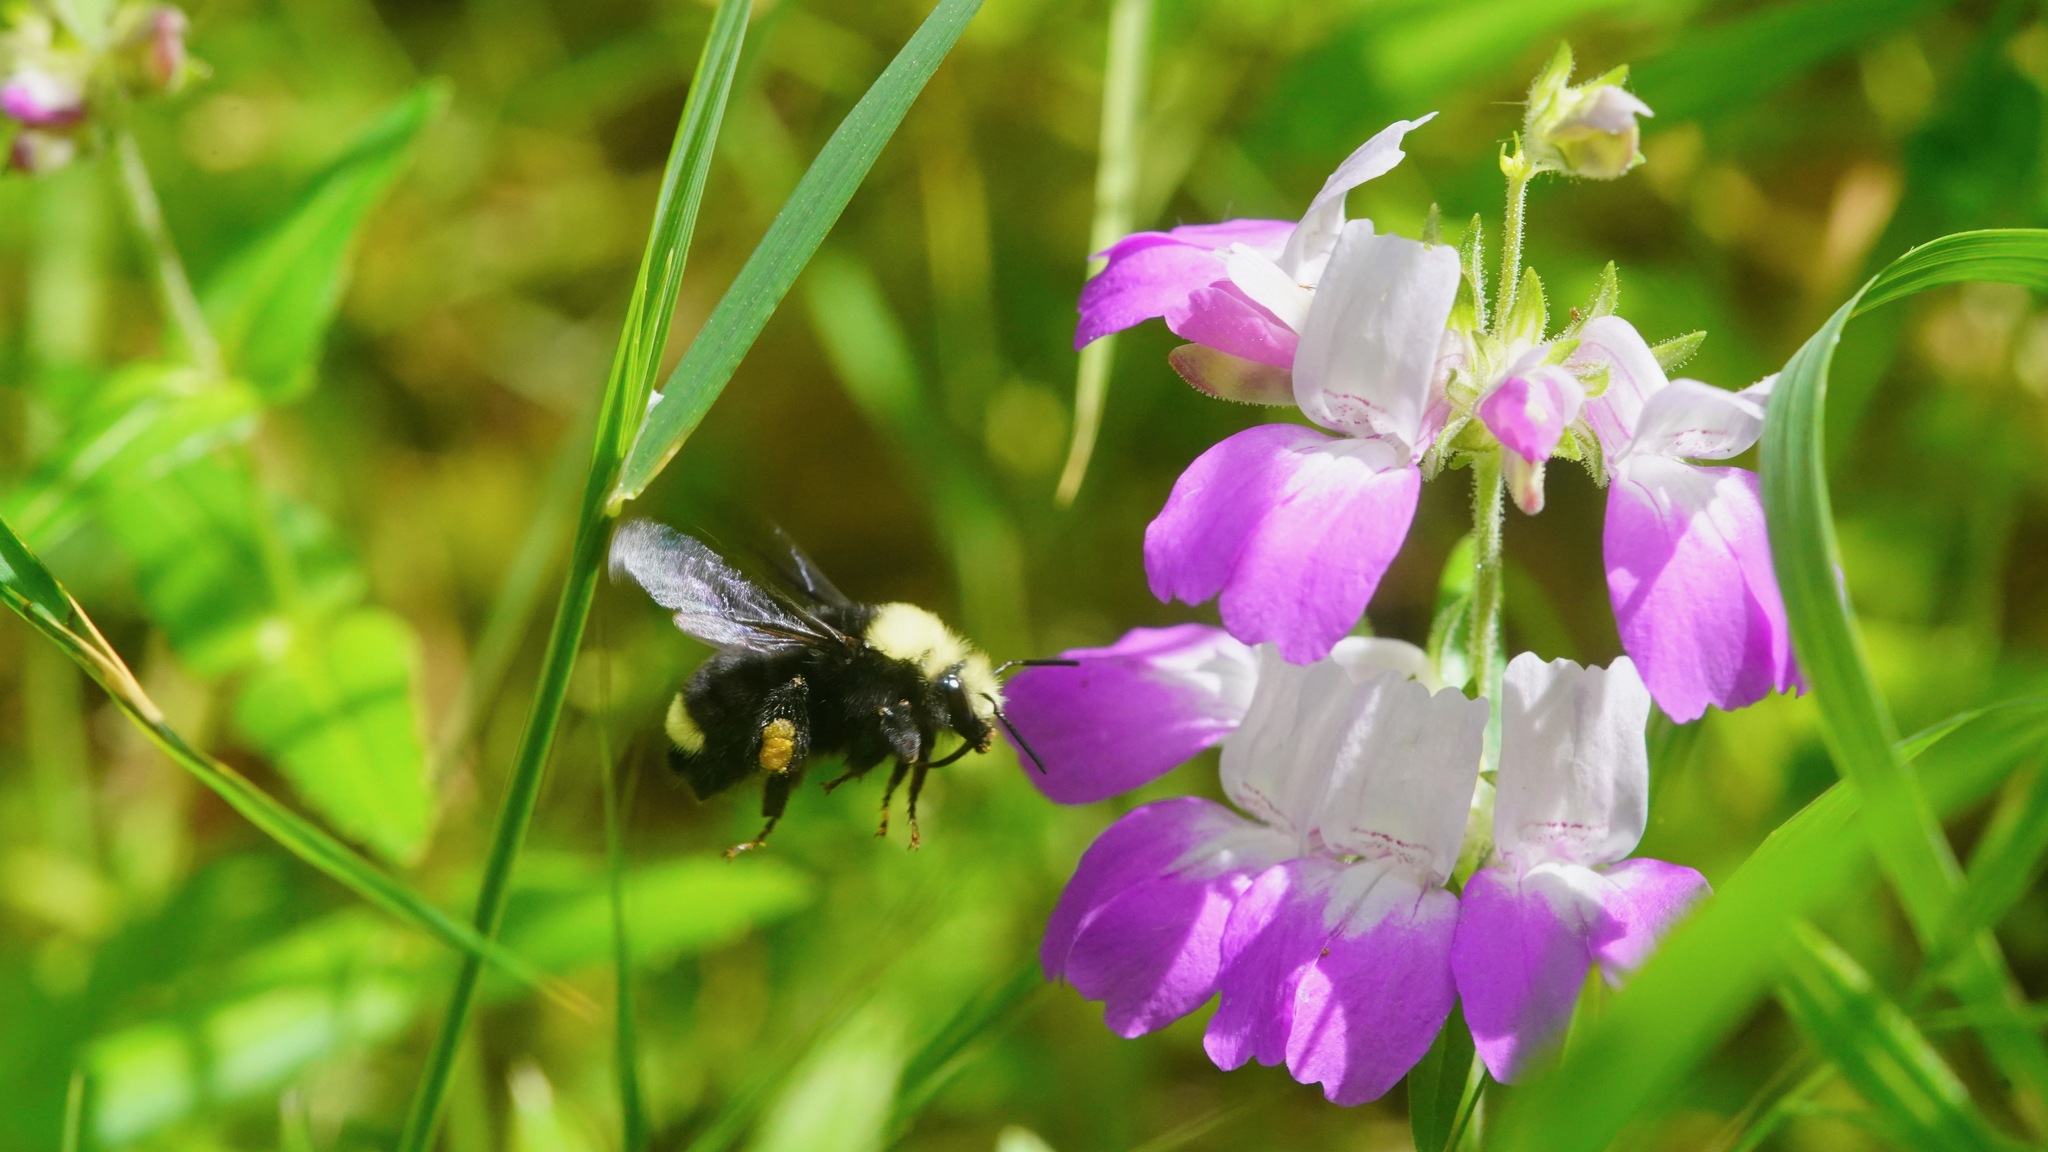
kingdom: Plantae
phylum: Tracheophyta
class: Magnoliopsida
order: Lamiales
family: Plantaginaceae
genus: Collinsia
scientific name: Collinsia heterophylla
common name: Chinese-houses
